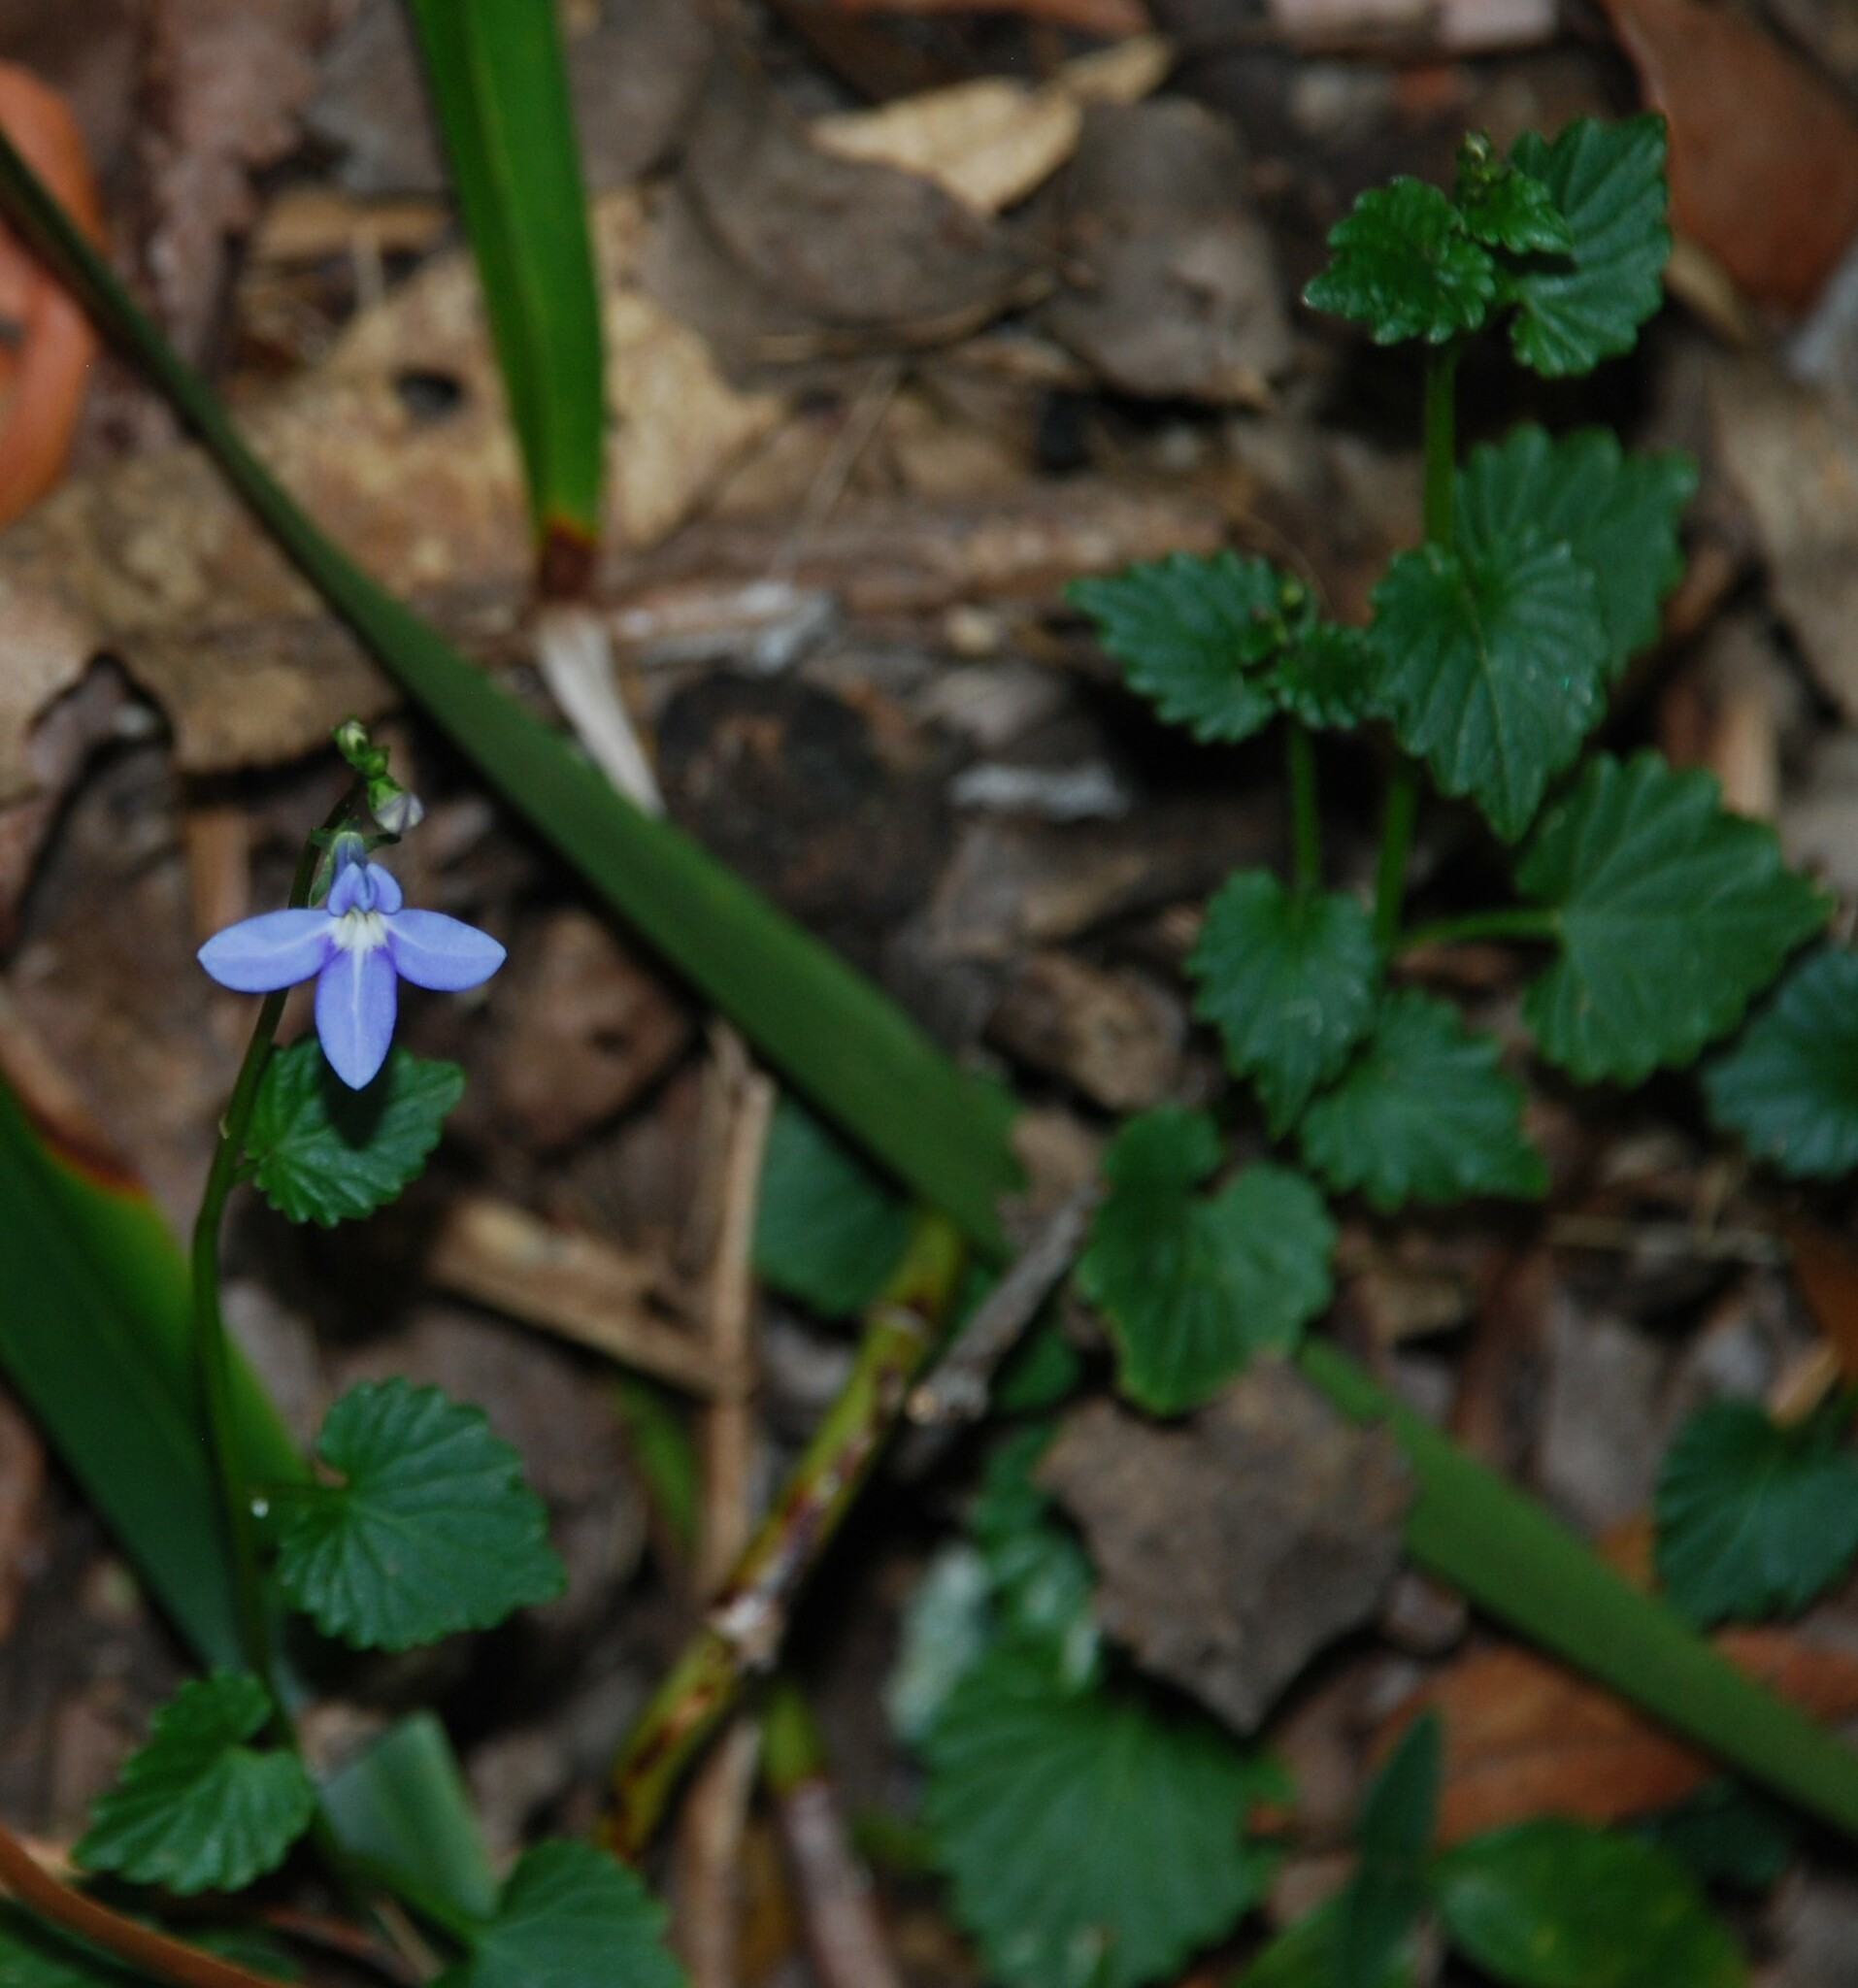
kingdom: Plantae
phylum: Tracheophyta
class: Magnoliopsida
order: Asterales
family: Campanulaceae
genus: Lobelia
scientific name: Lobelia trigonocaulis
